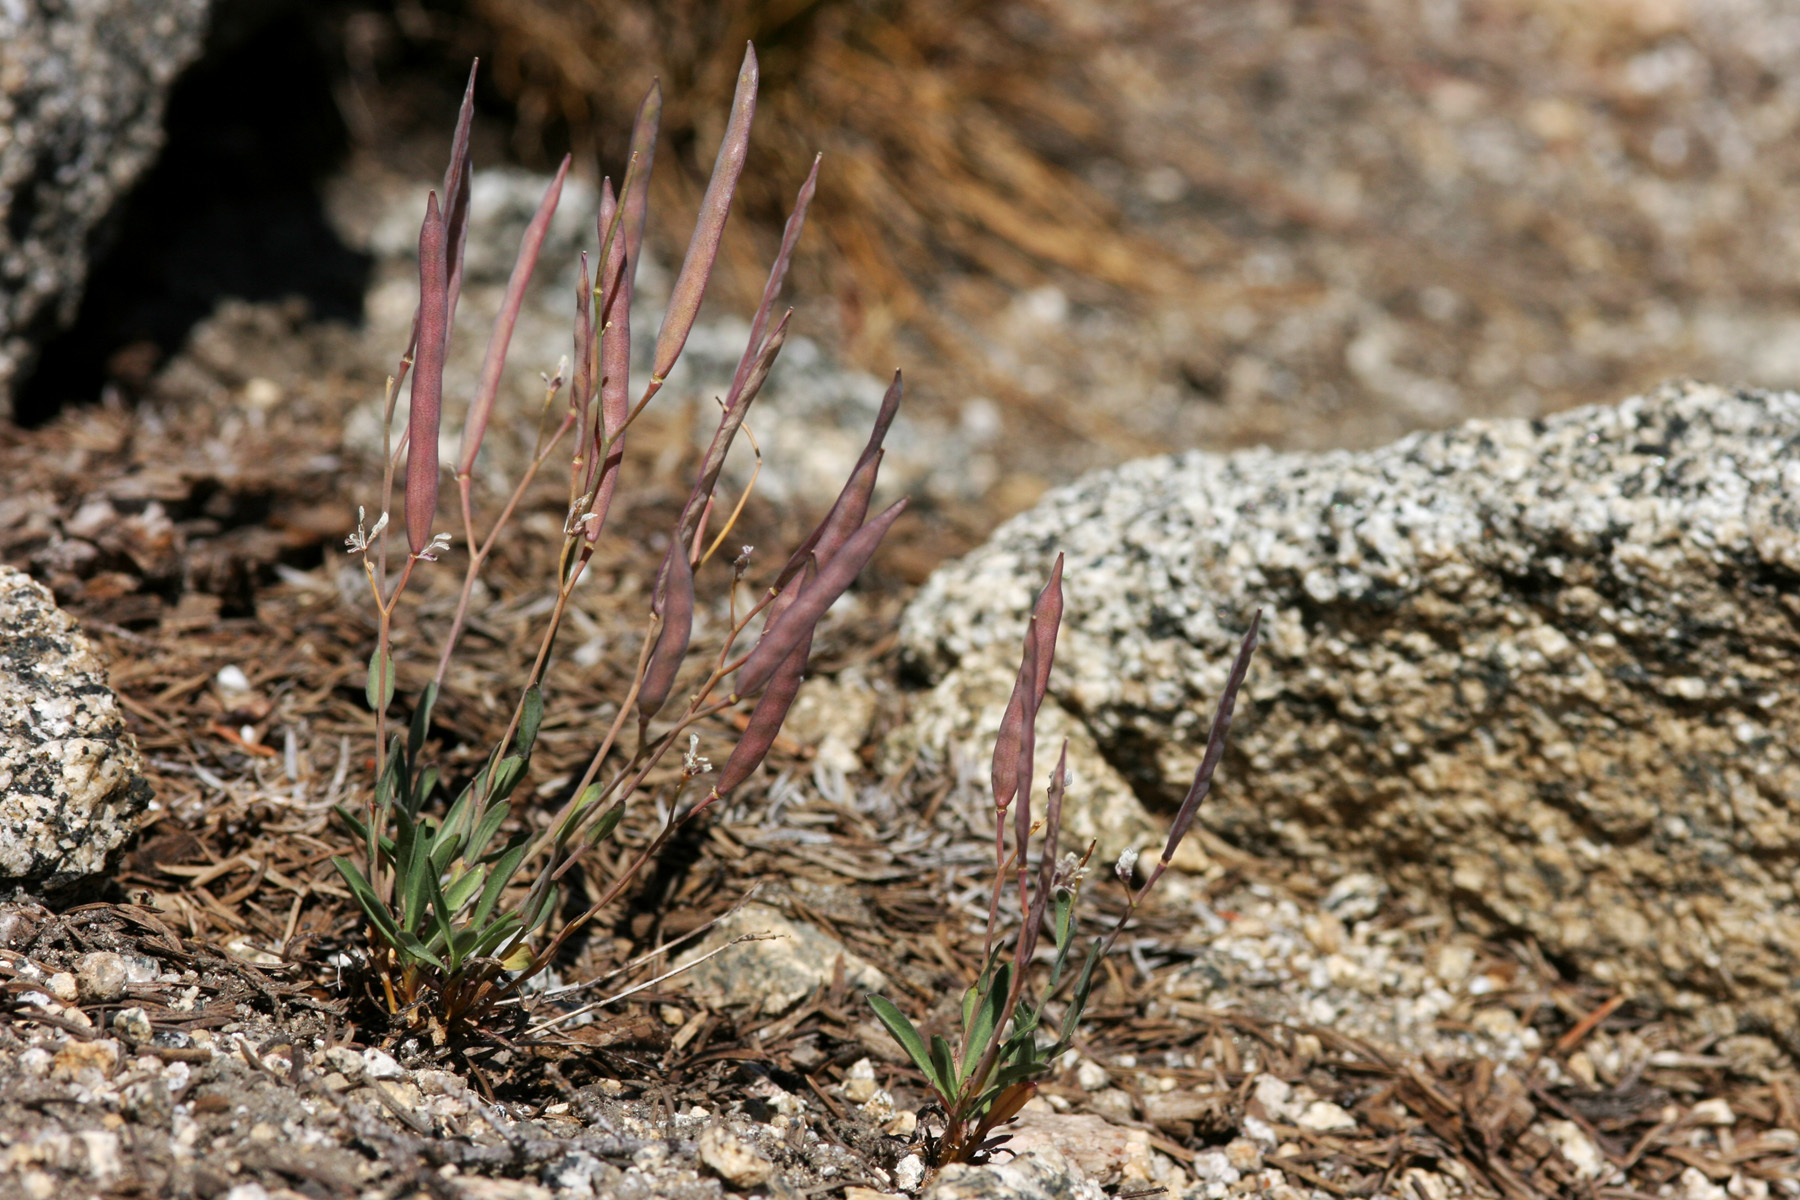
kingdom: Plantae
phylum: Tracheophyta
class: Magnoliopsida
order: Brassicales
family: Brassicaceae
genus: Boechera
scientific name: Boechera howellii
